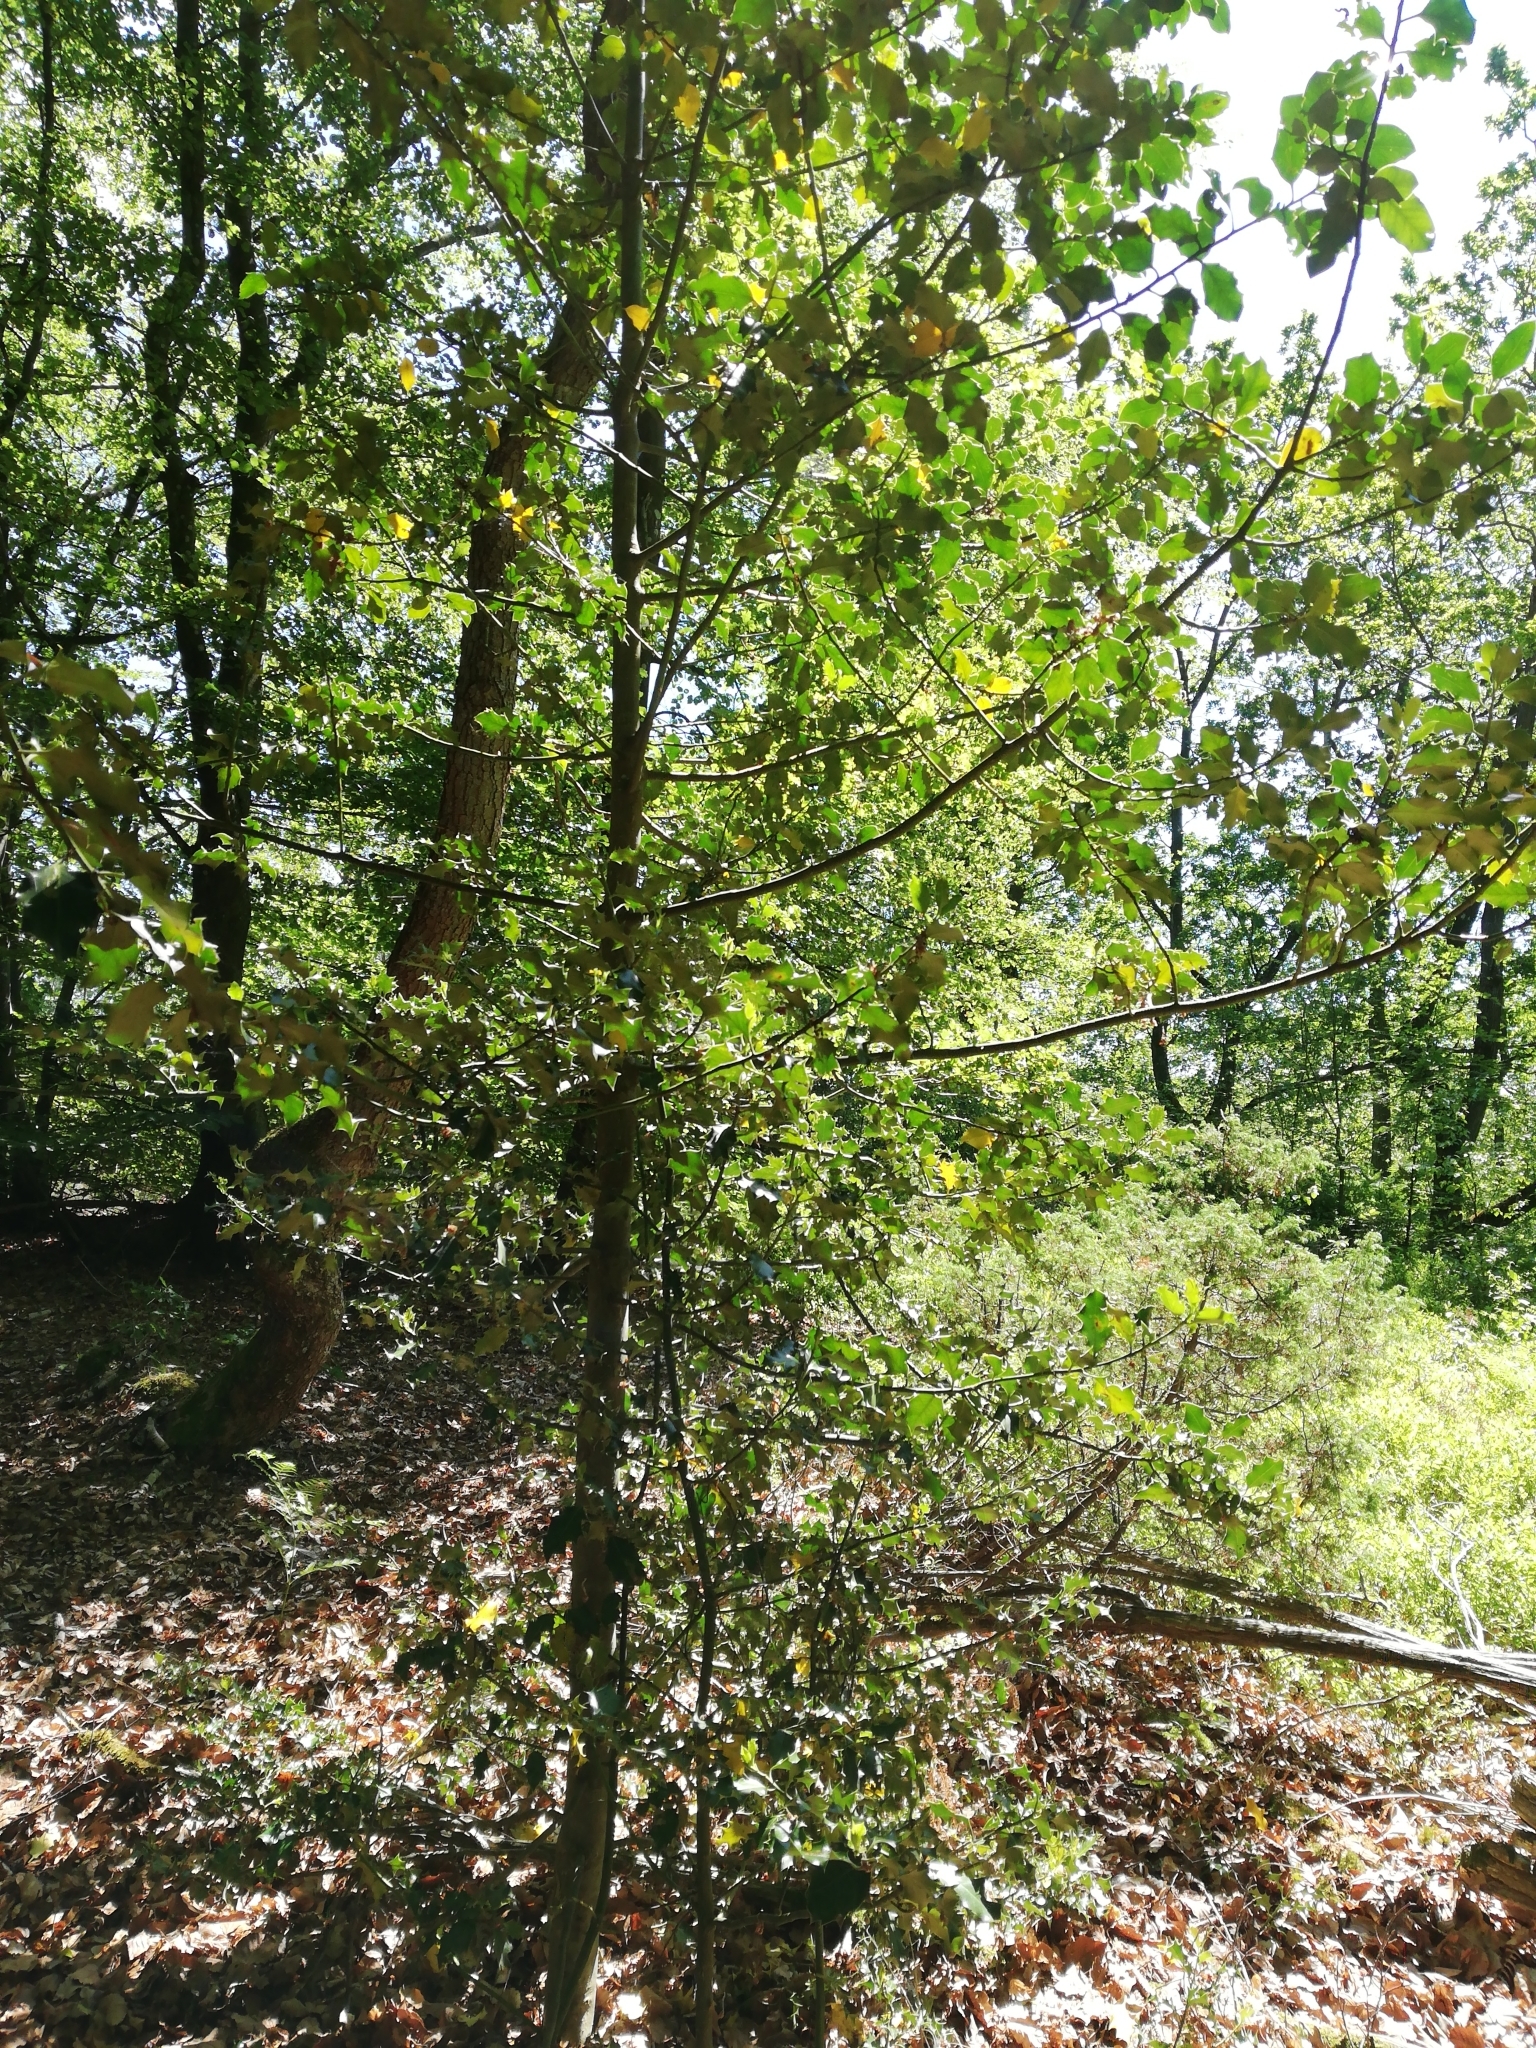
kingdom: Plantae
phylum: Tracheophyta
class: Magnoliopsida
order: Aquifoliales
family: Aquifoliaceae
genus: Ilex
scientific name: Ilex aquifolium
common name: English holly
